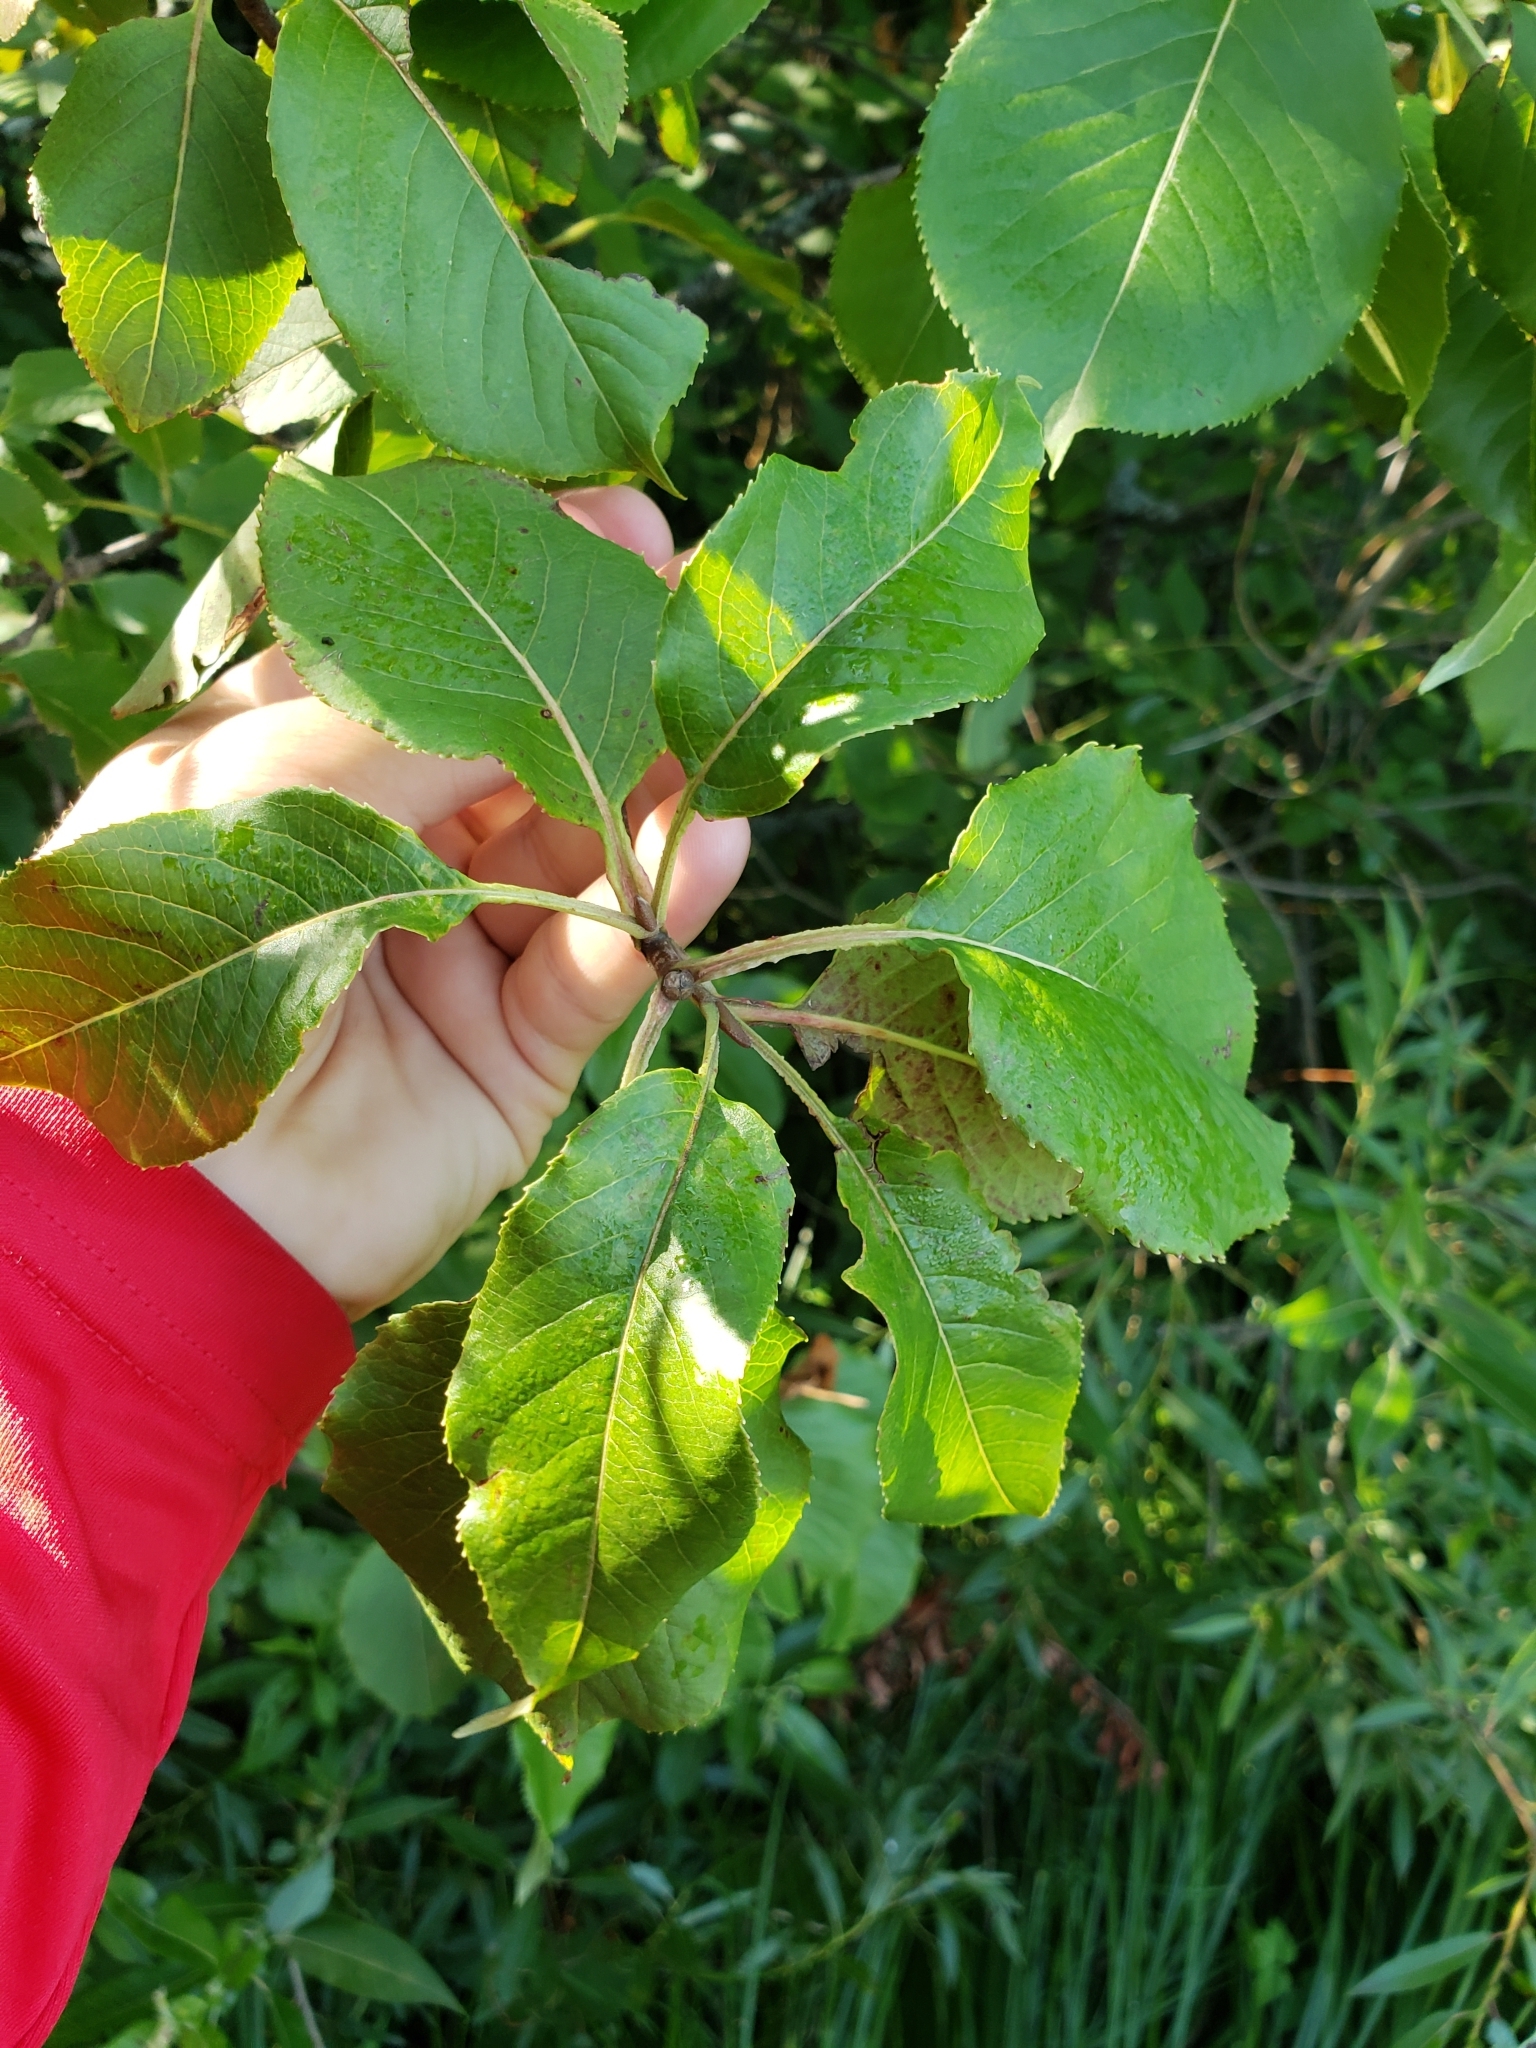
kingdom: Plantae
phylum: Tracheophyta
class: Magnoliopsida
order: Dipsacales
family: Viburnaceae
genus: Viburnum
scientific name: Viburnum lentago
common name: Black haw
